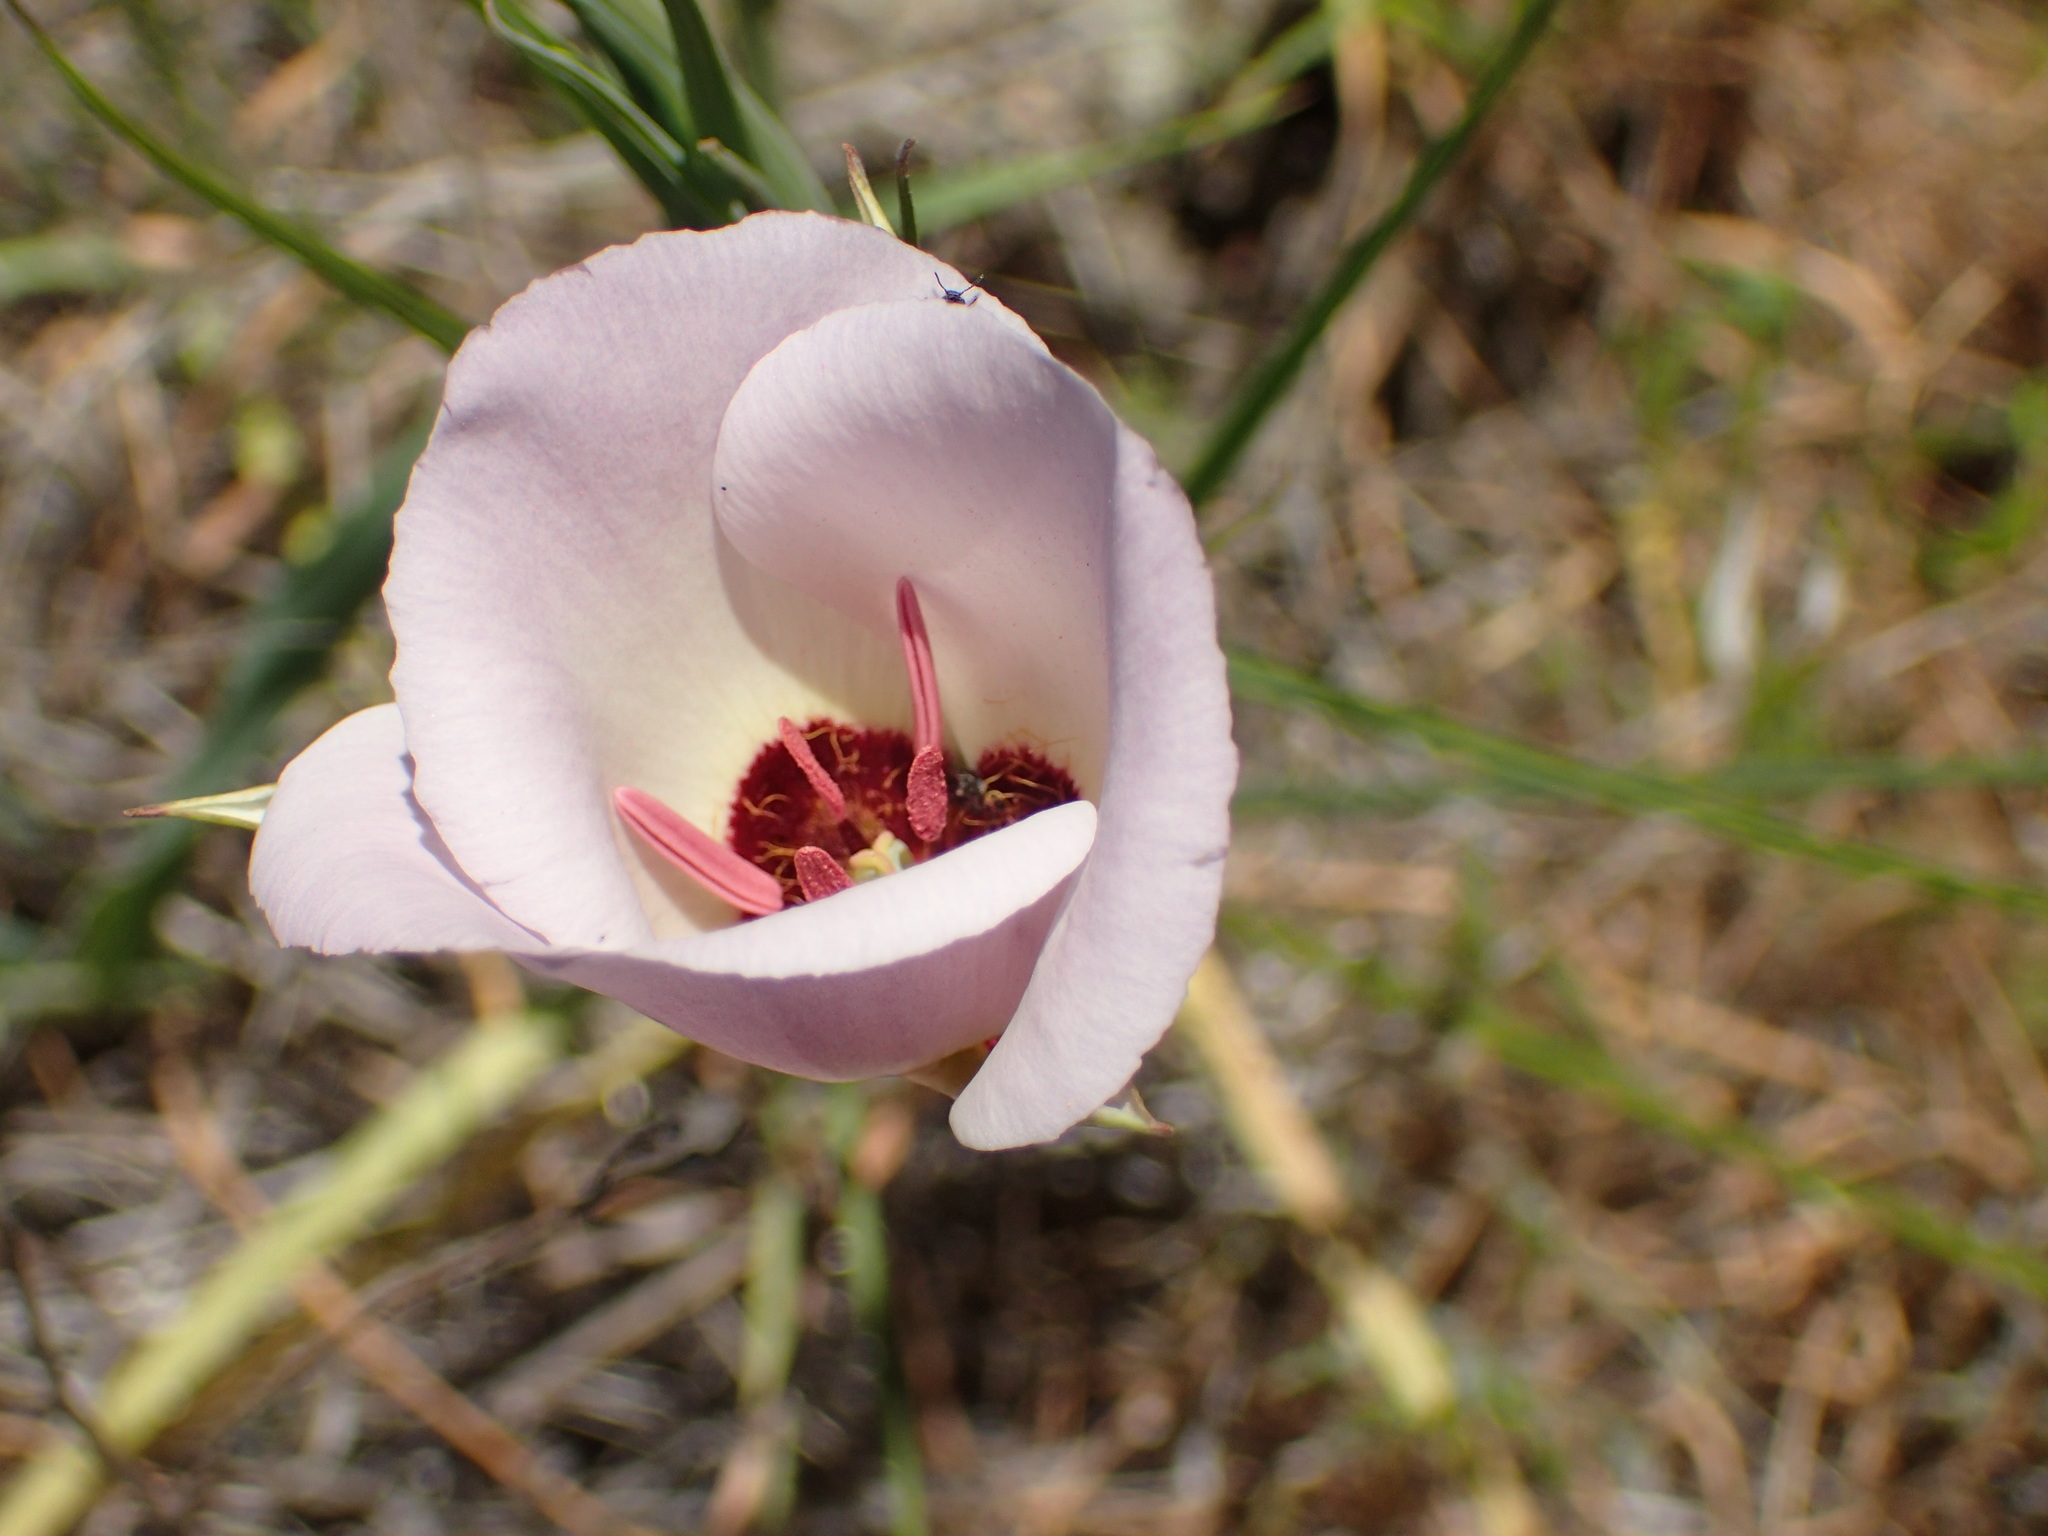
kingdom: Plantae
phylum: Tracheophyta
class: Liliopsida
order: Liliales
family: Liliaceae
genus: Calochortus
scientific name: Calochortus catalinae
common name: Catalina mariposa-lily
